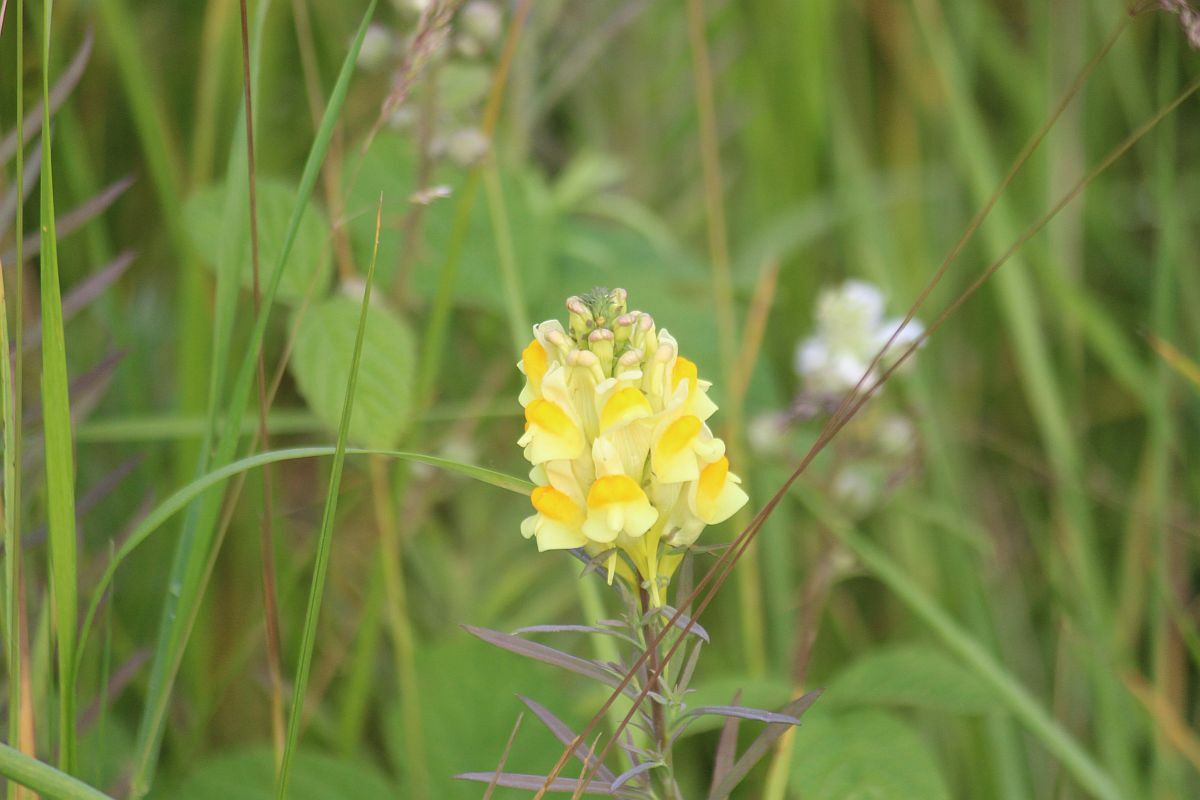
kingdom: Plantae
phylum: Tracheophyta
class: Magnoliopsida
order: Lamiales
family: Plantaginaceae
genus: Linaria
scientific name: Linaria vulgaris
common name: Butter and eggs
